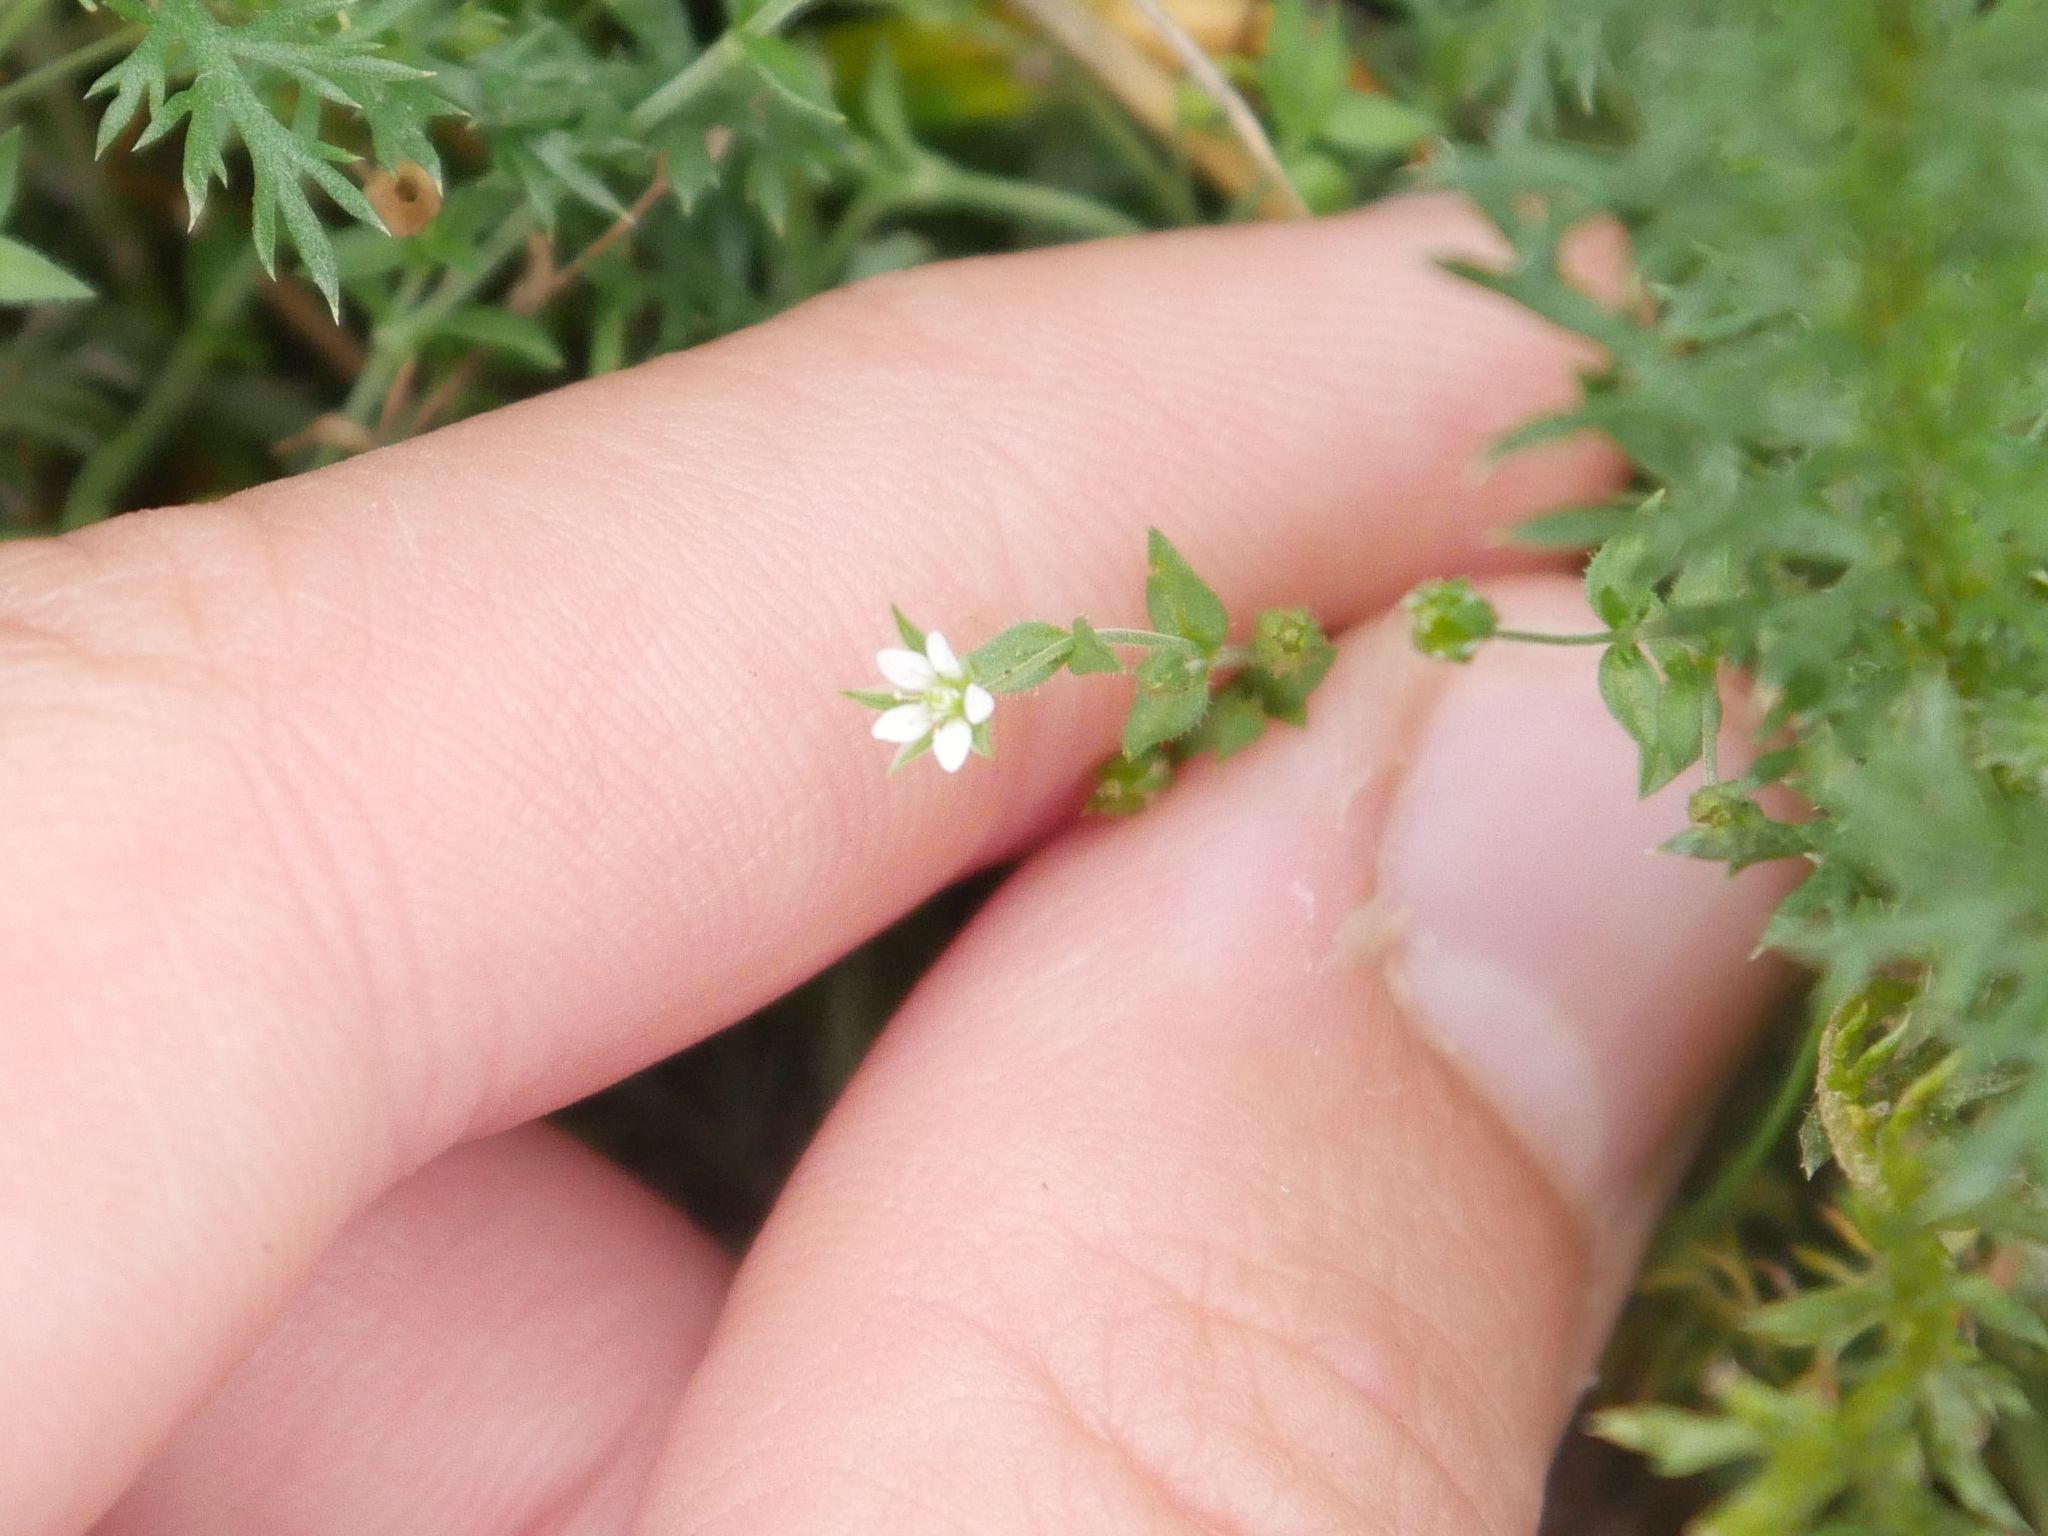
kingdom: Plantae
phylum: Tracheophyta
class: Magnoliopsida
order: Caryophyllales
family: Caryophyllaceae
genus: Arenaria
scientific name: Arenaria serpyllifolia
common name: Thyme-leaved sandwort
